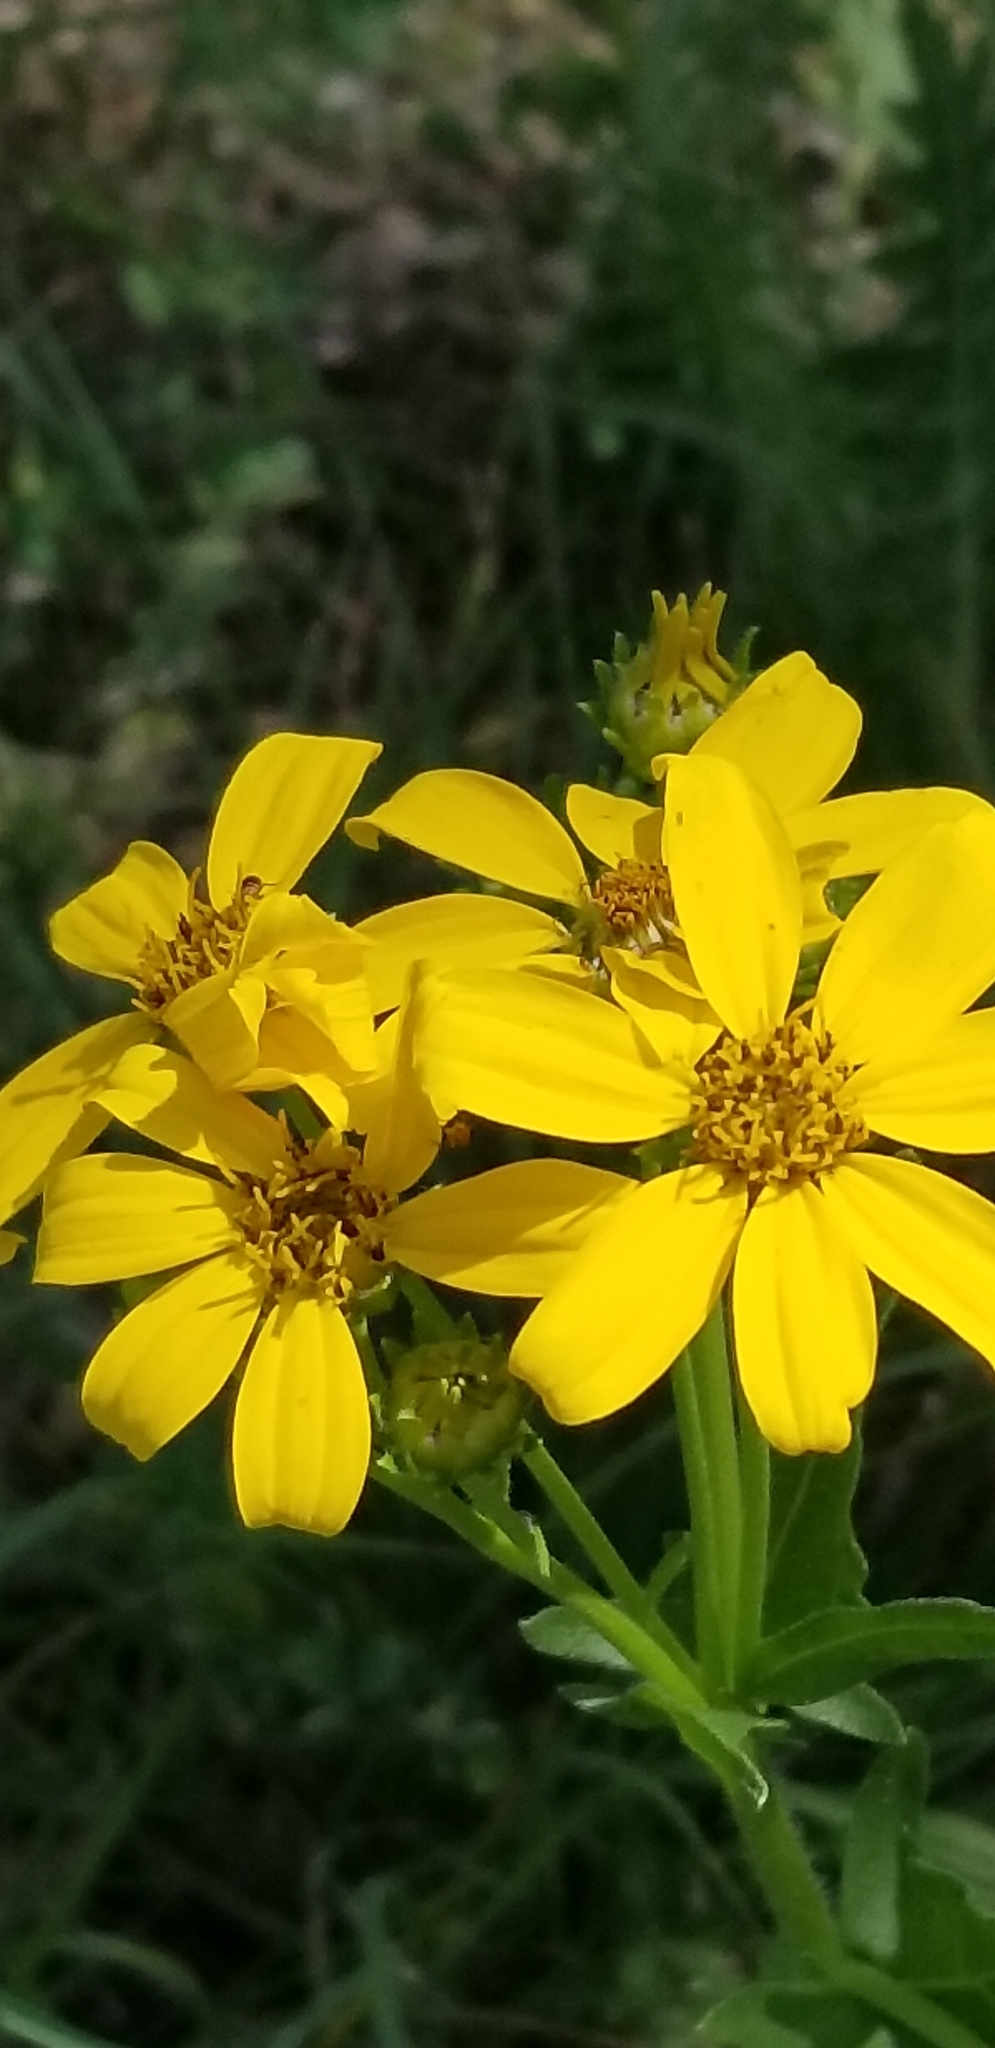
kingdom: Plantae
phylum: Tracheophyta
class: Magnoliopsida
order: Asterales
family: Asteraceae
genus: Engelmannia
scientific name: Engelmannia peristenia
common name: Engelmann's daisy
